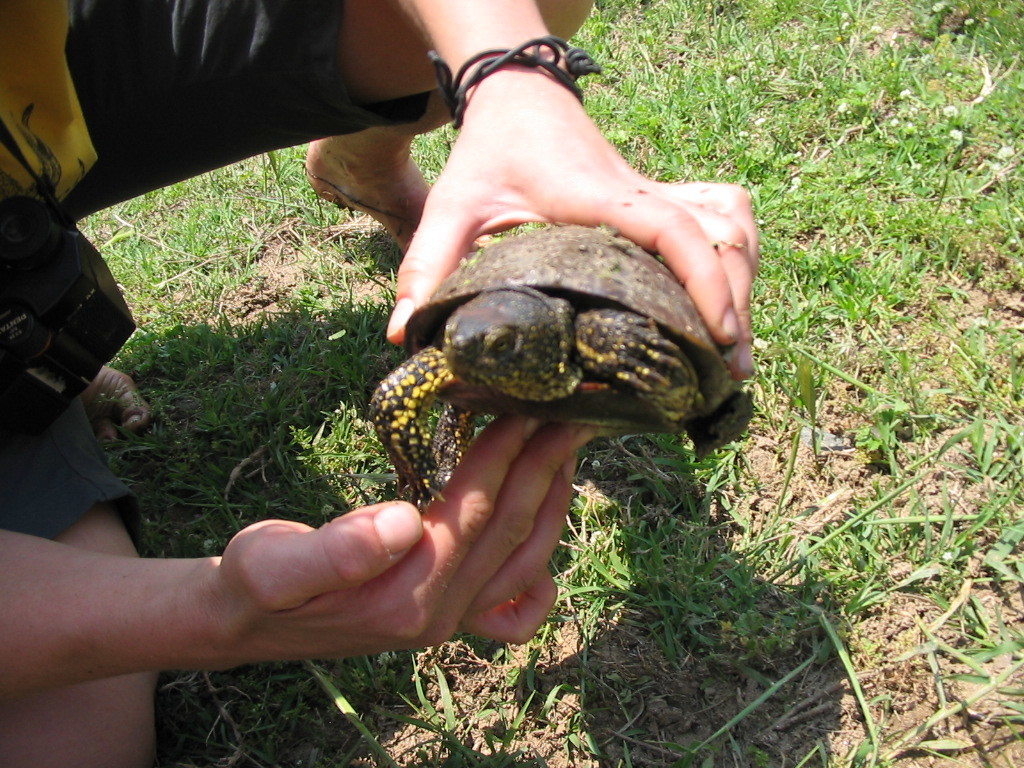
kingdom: Animalia
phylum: Chordata
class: Testudines
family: Emydidae
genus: Emys
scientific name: Emys orbicularis
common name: European pond turtle
